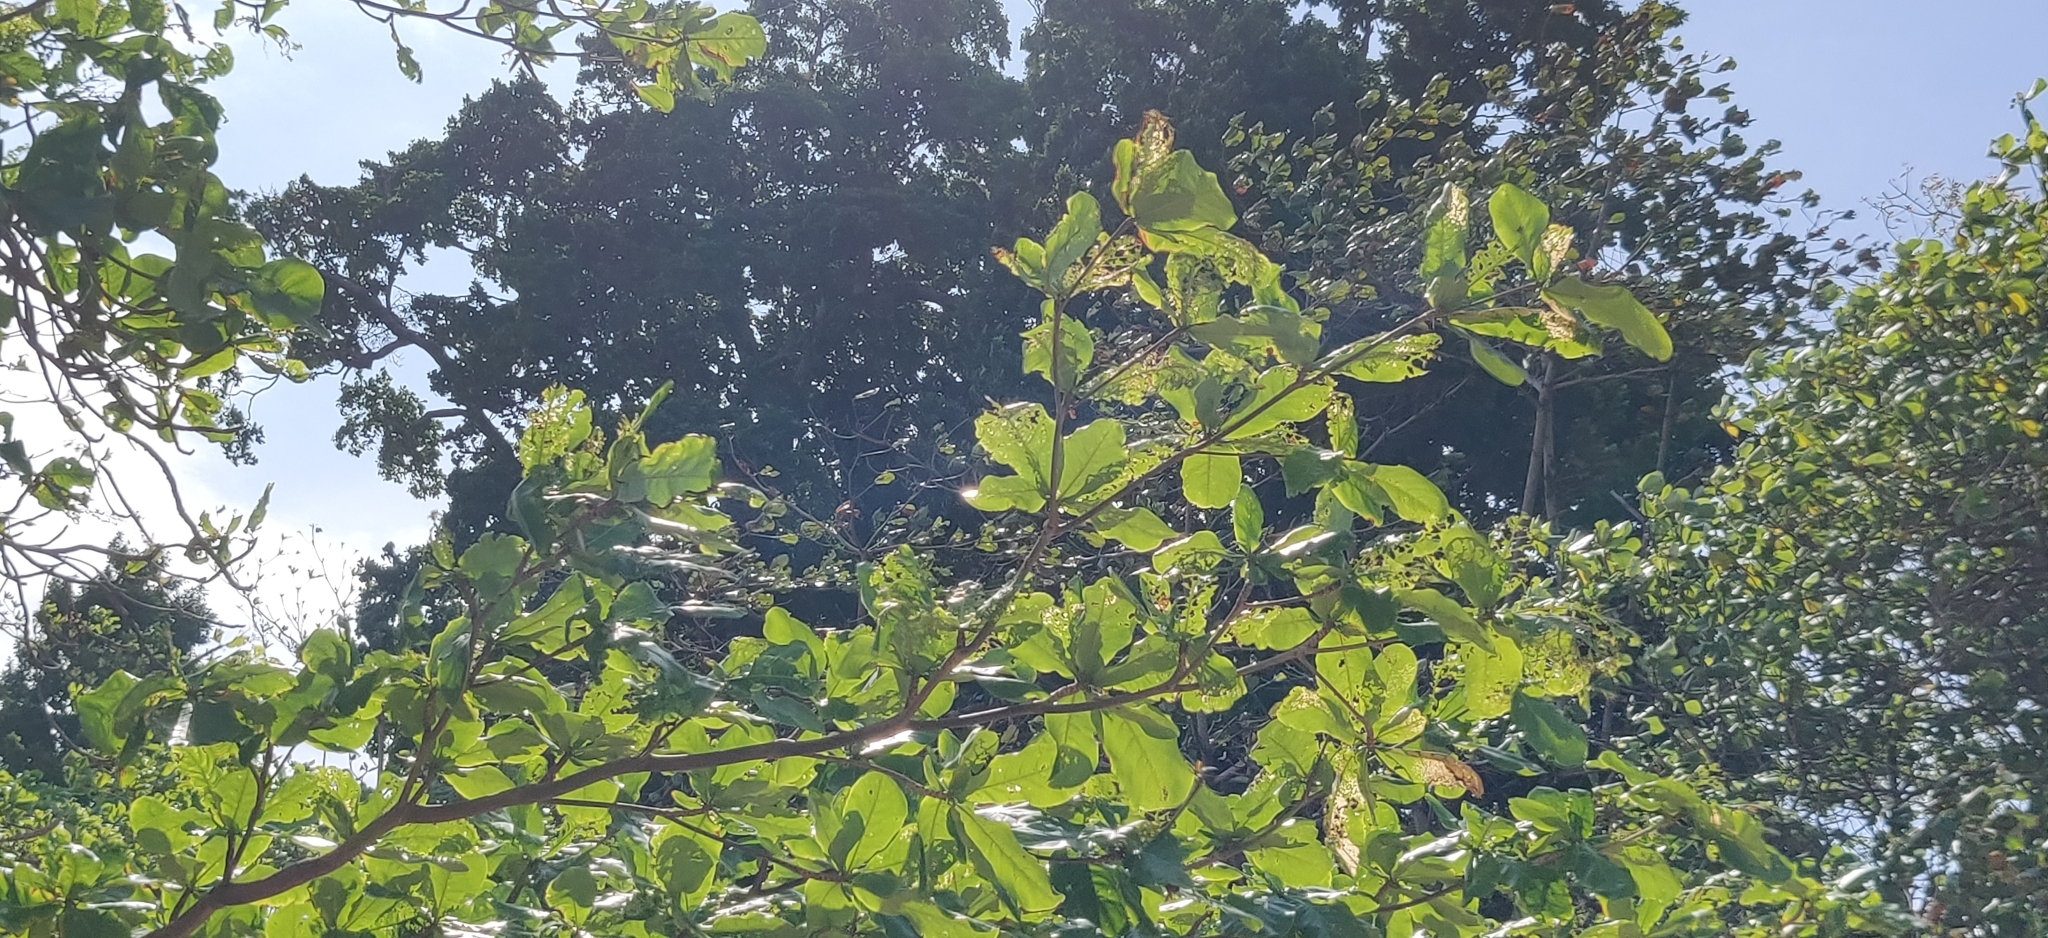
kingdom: Plantae
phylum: Tracheophyta
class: Magnoliopsida
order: Myrtales
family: Combretaceae
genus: Terminalia
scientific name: Terminalia catappa
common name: Tropical almond
